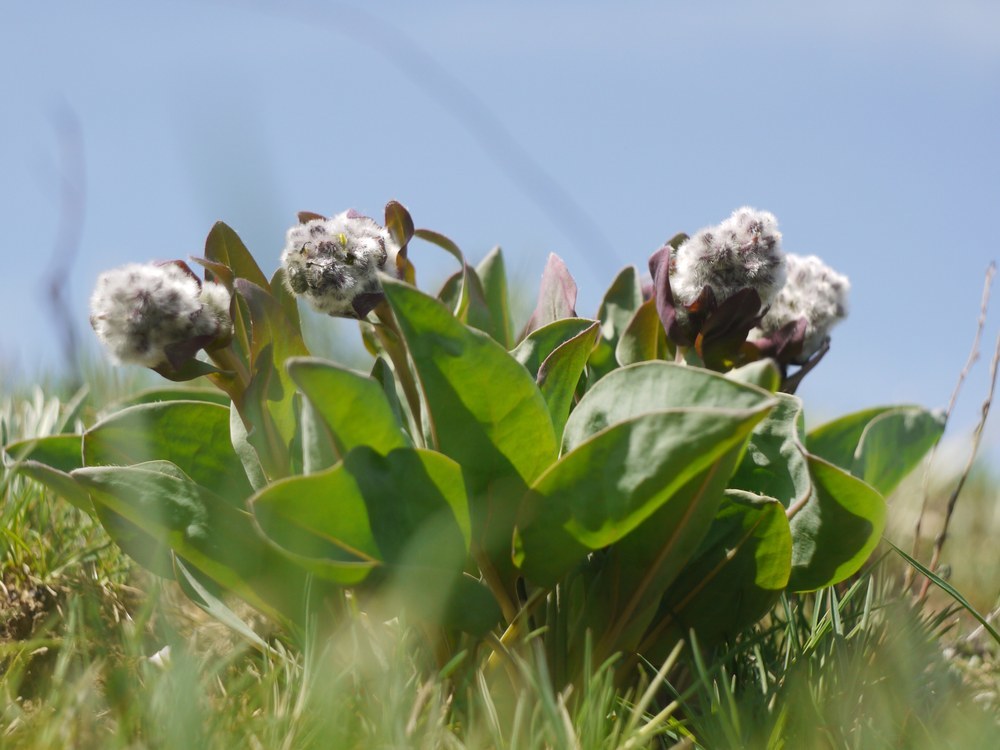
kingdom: Plantae
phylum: Tracheophyta
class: Magnoliopsida
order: Boraginales
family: Boraginaceae
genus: Rindera
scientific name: Rindera tetraspis
